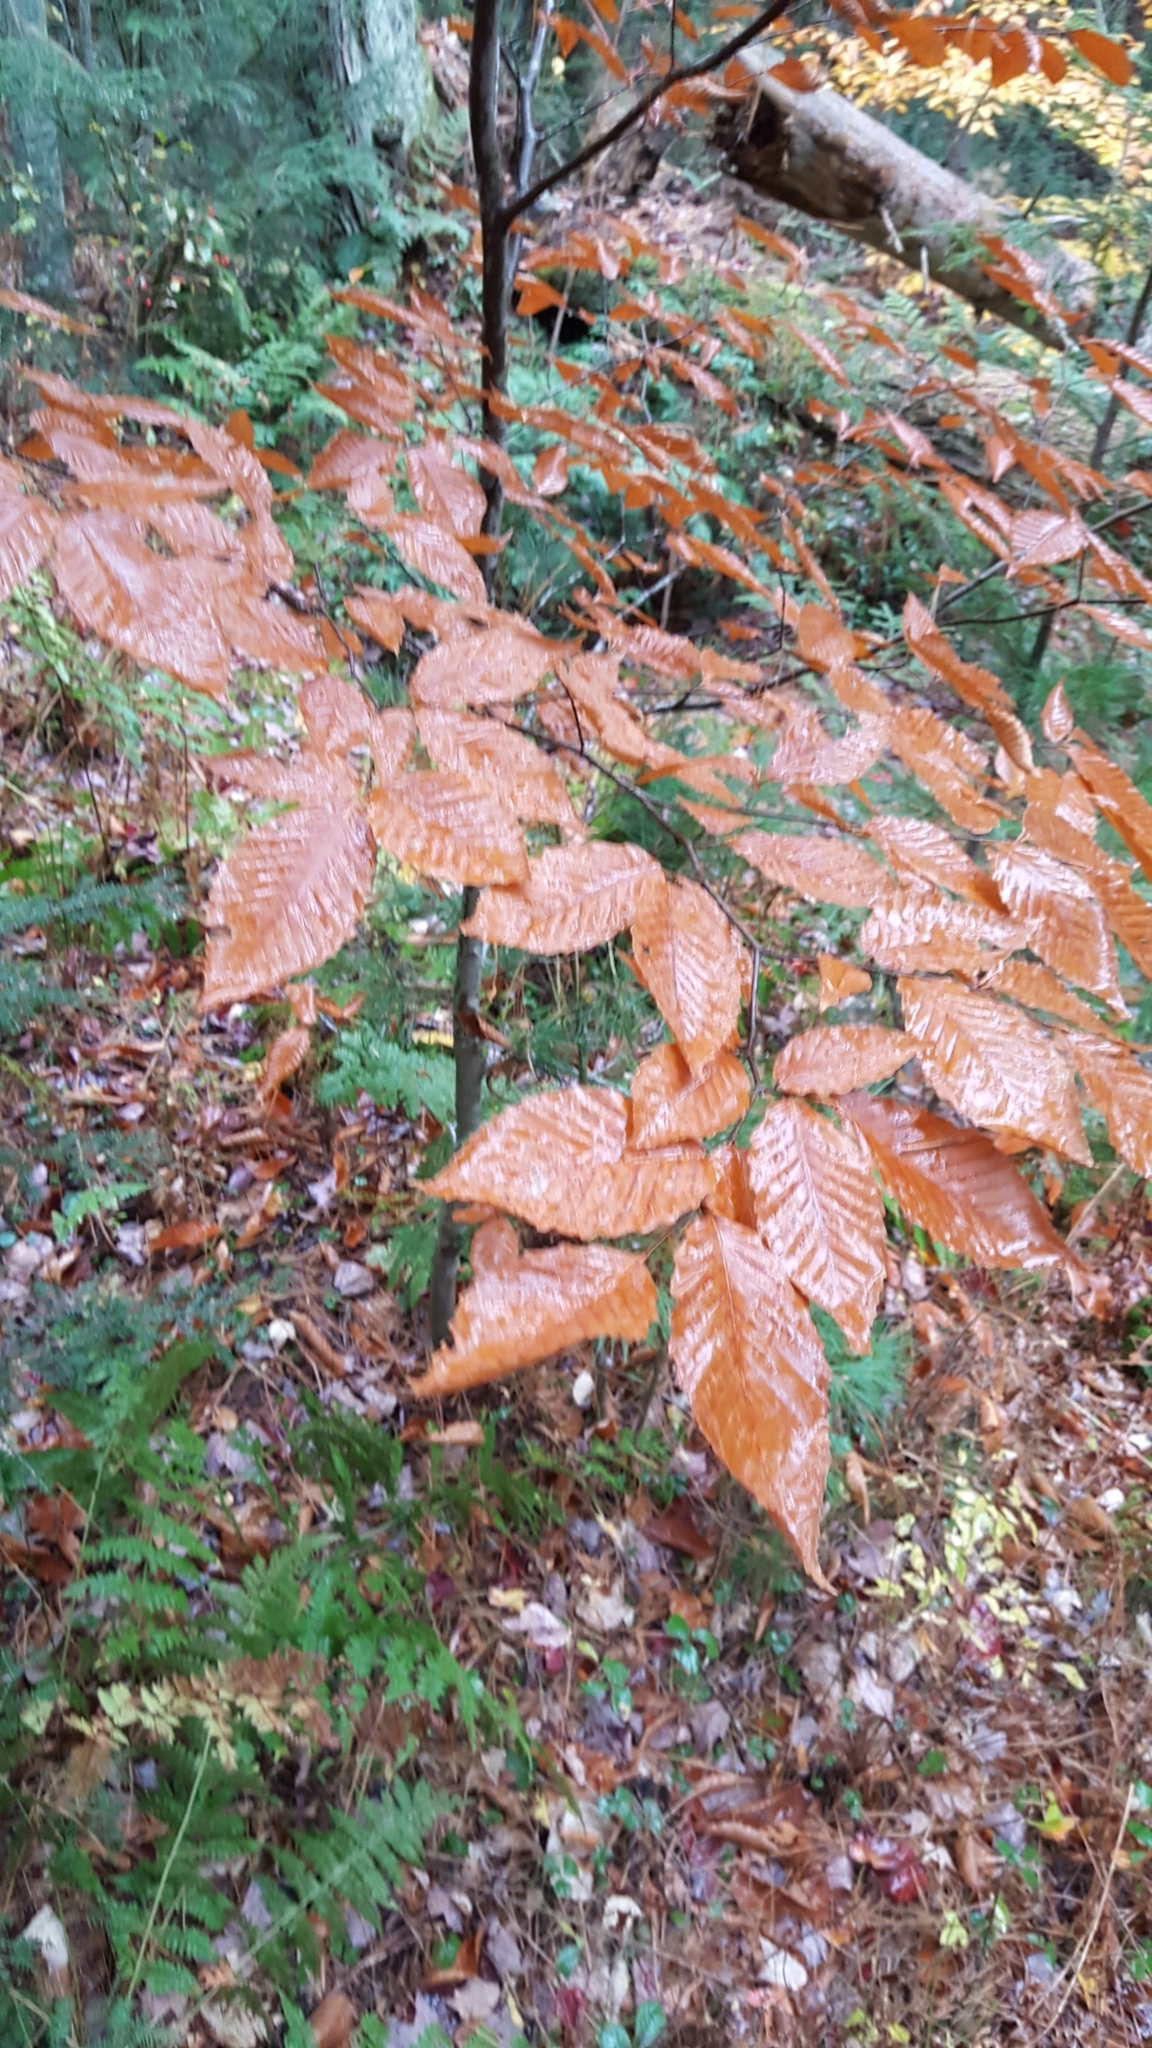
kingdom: Plantae
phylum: Tracheophyta
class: Magnoliopsida
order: Fagales
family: Fagaceae
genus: Fagus
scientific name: Fagus grandifolia
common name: American beech
